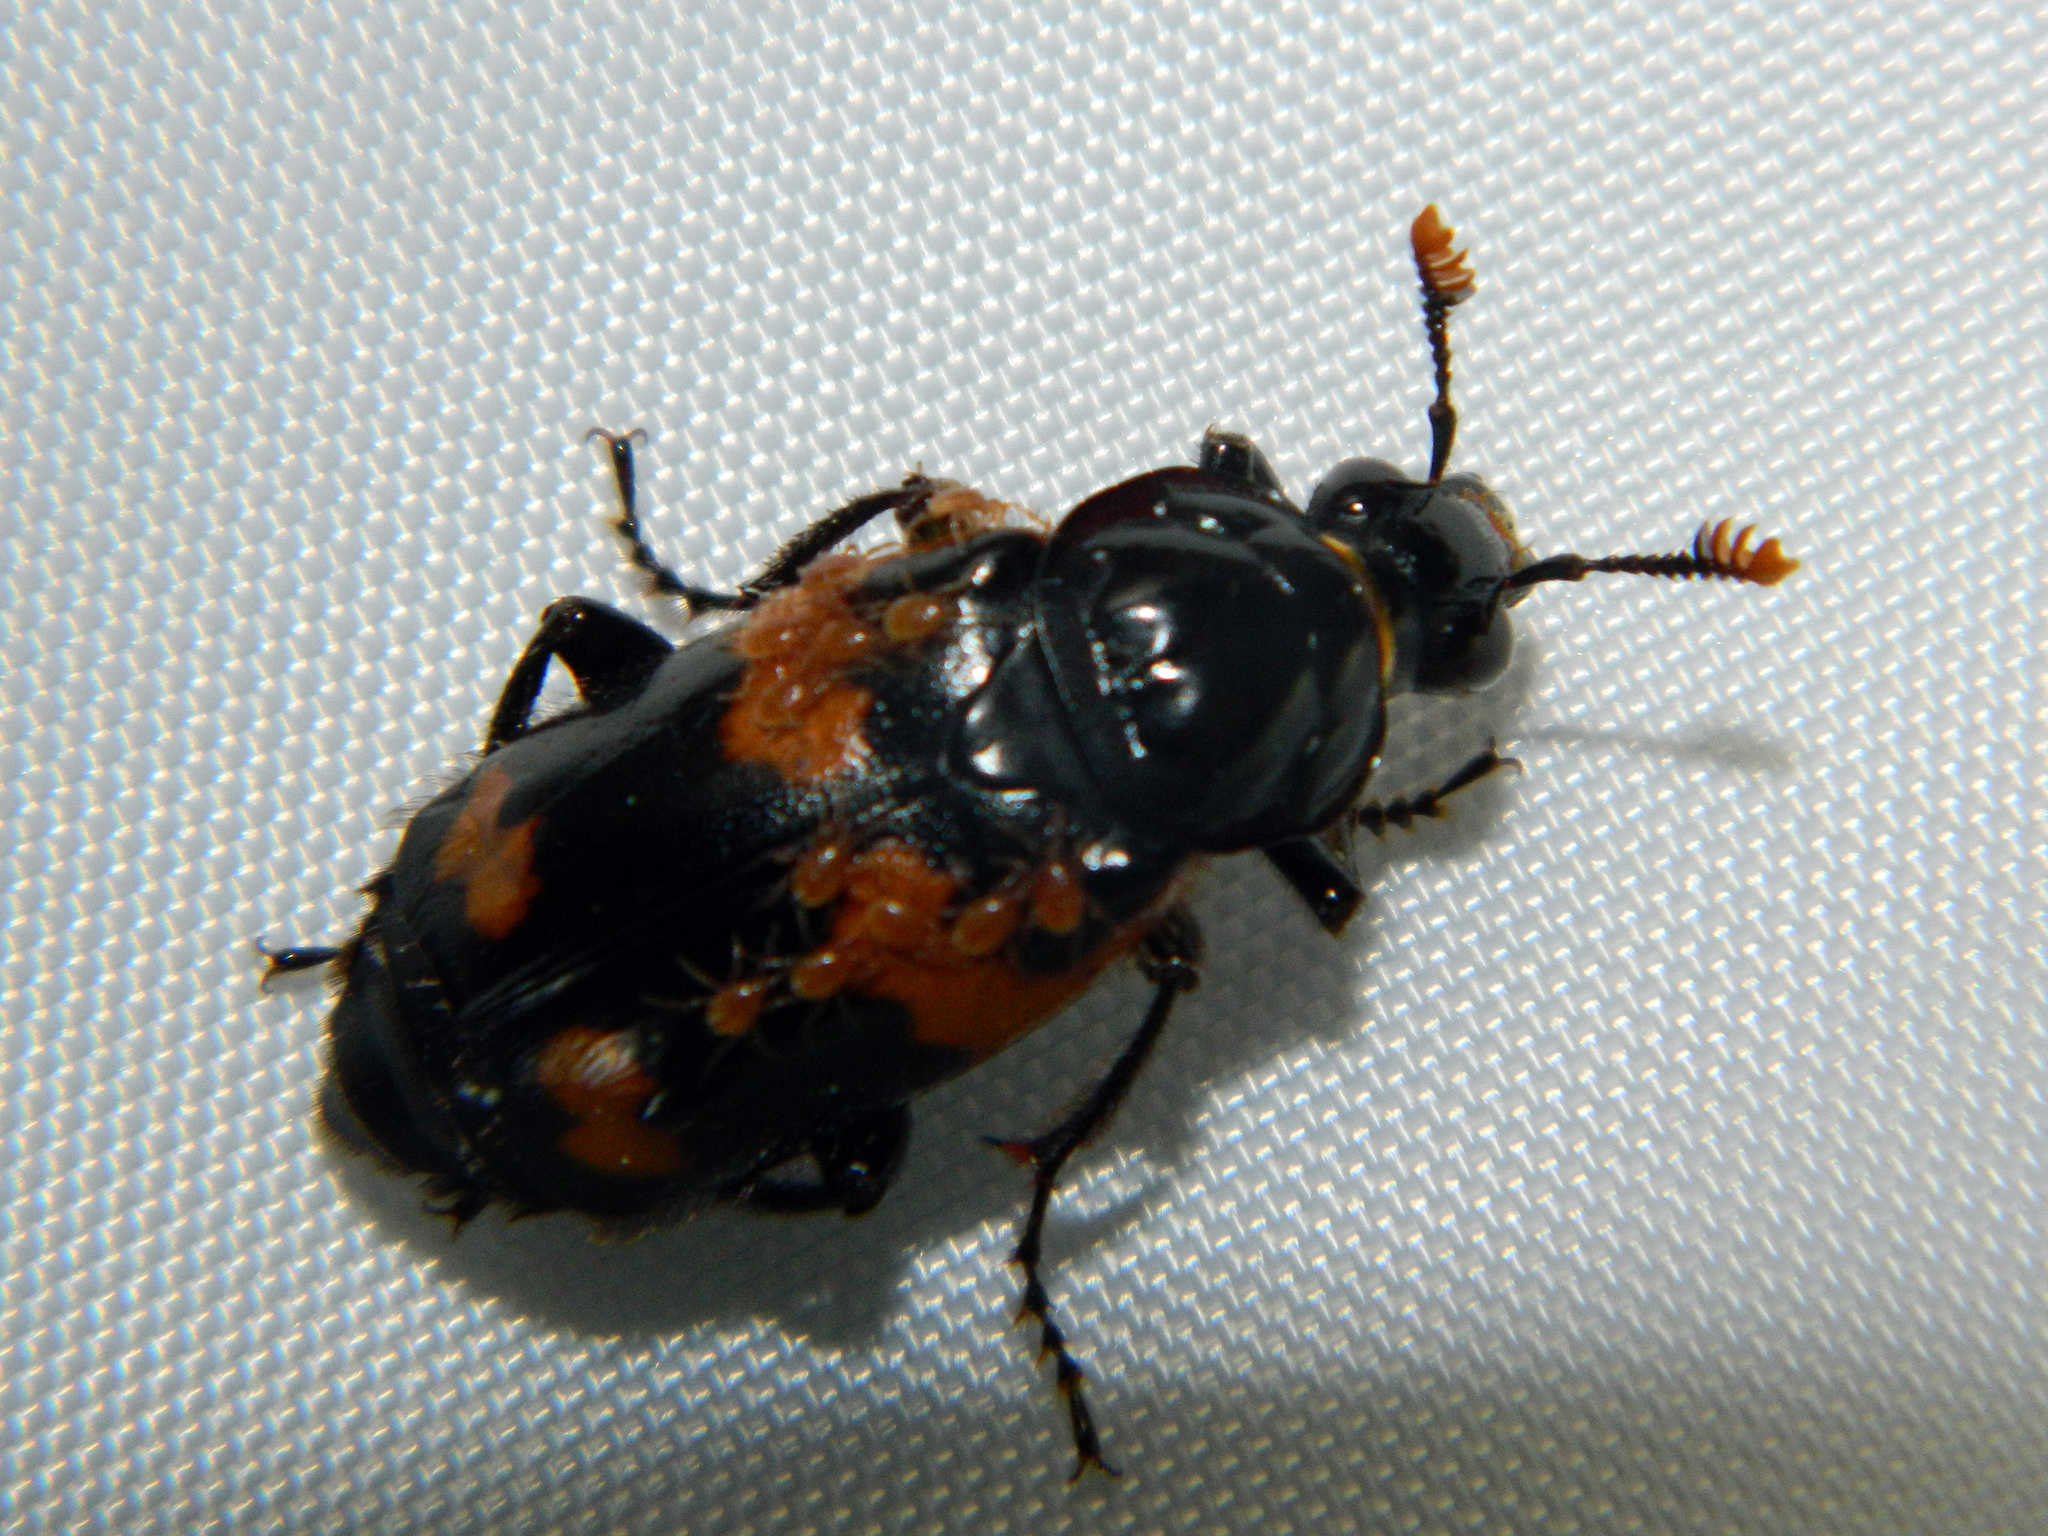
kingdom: Animalia
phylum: Arthropoda
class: Insecta
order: Coleoptera
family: Staphylinidae
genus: Nicrophorus
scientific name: Nicrophorus sayi
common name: Say's burying beetle
